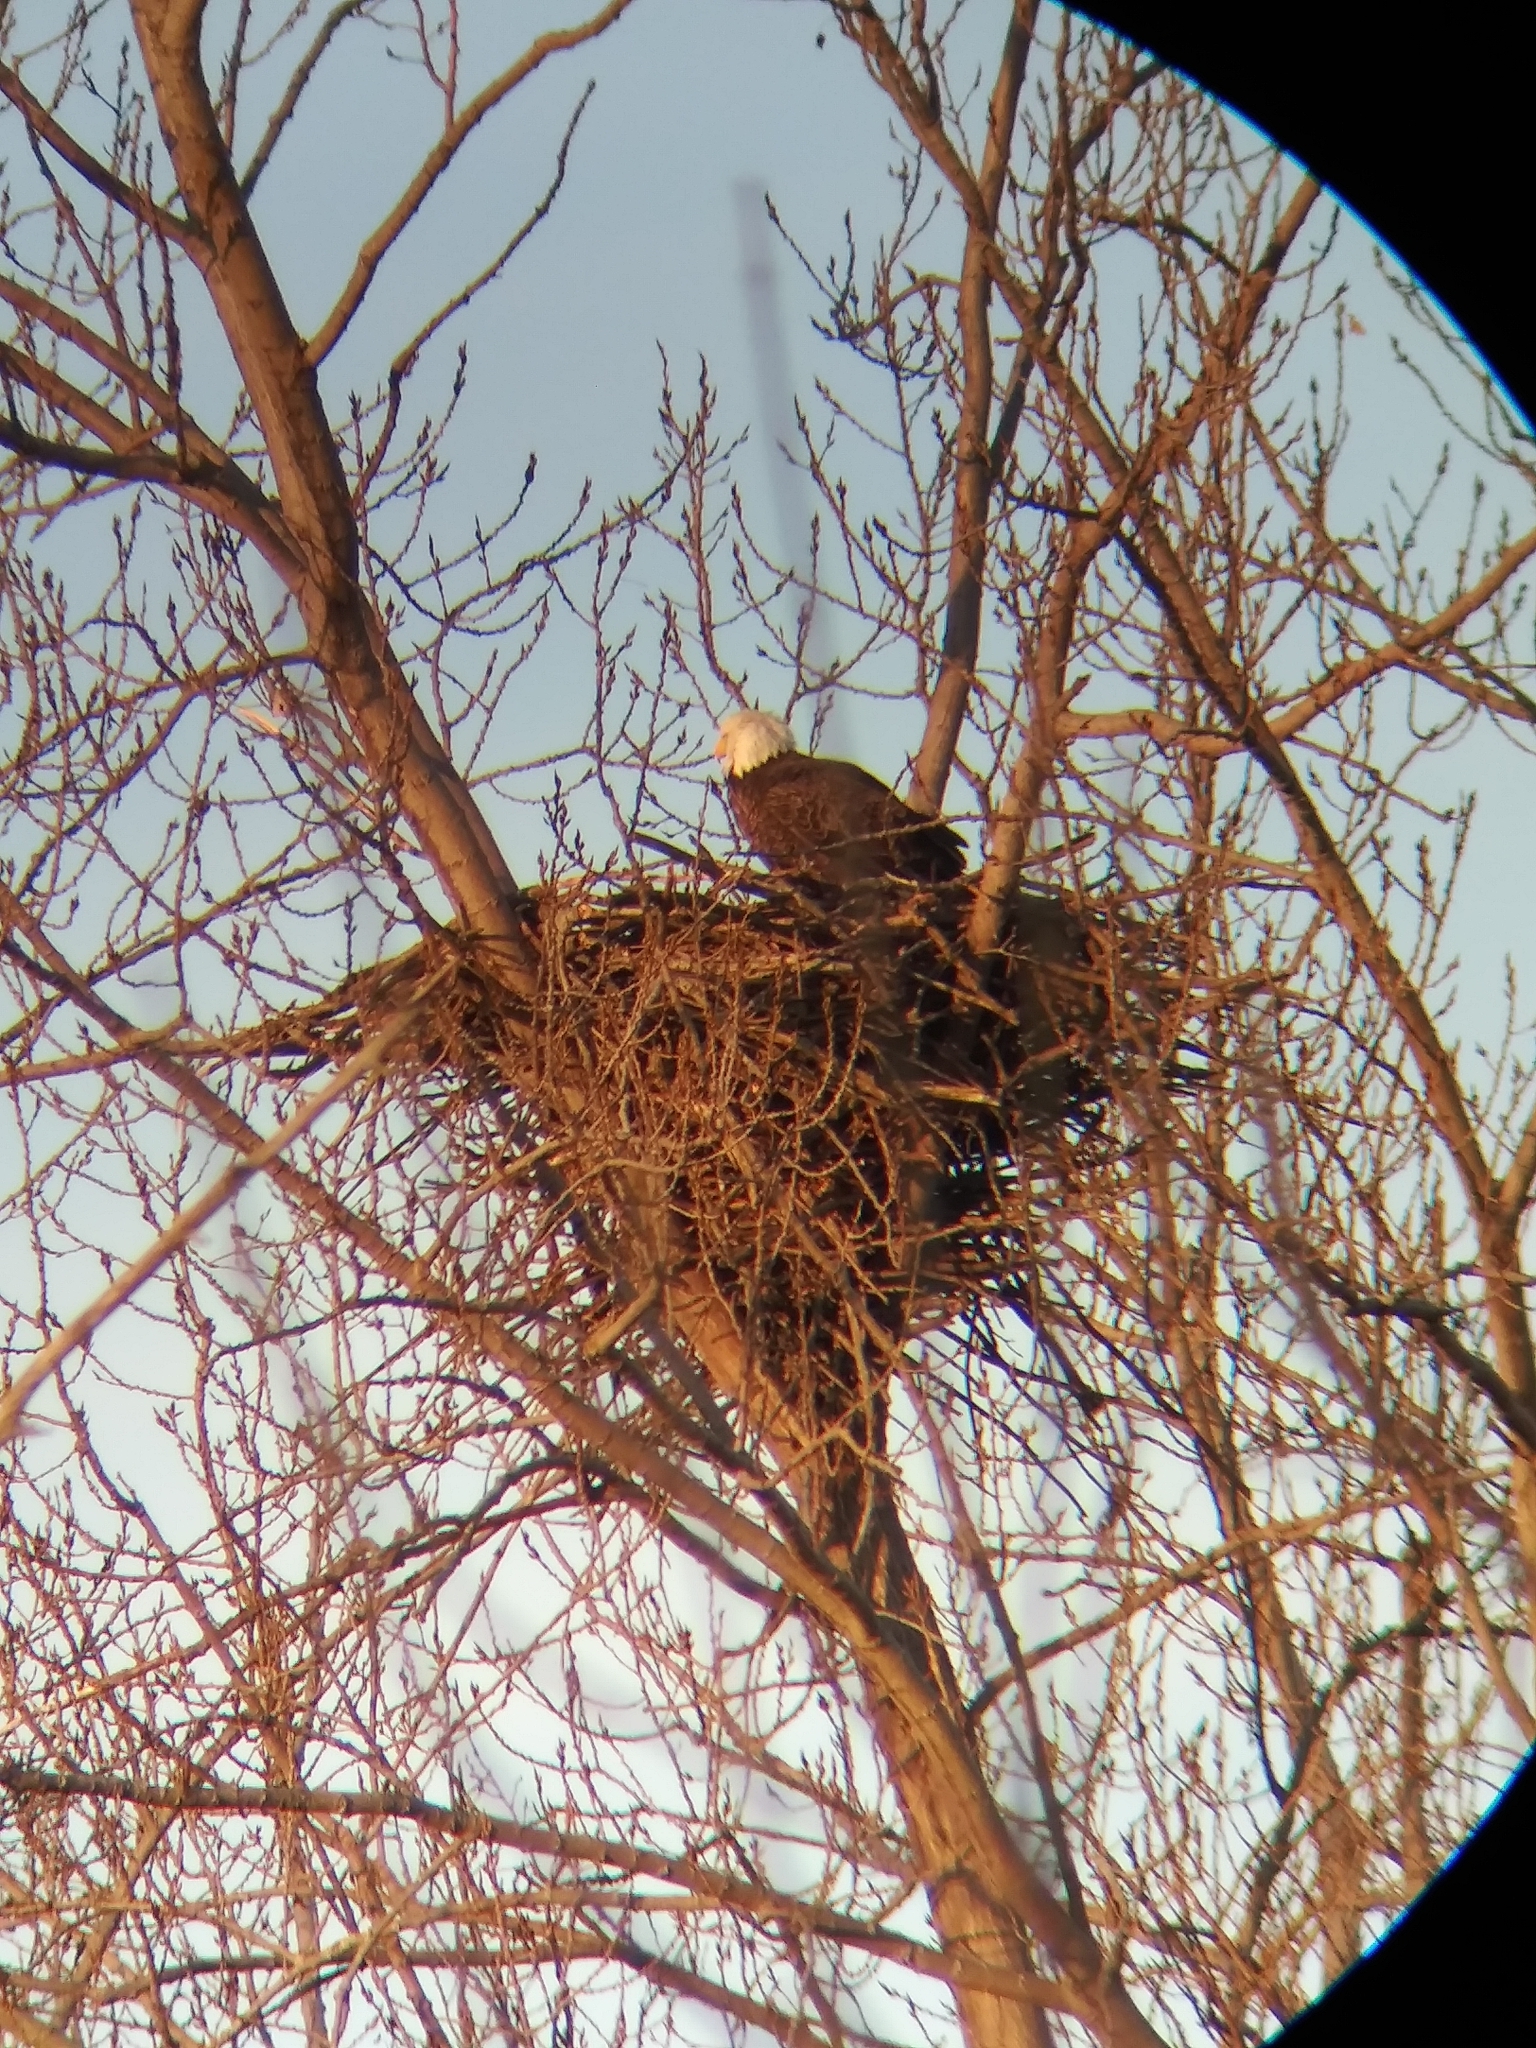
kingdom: Animalia
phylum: Chordata
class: Aves
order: Accipitriformes
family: Accipitridae
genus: Haliaeetus
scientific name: Haliaeetus leucocephalus
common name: Bald eagle
